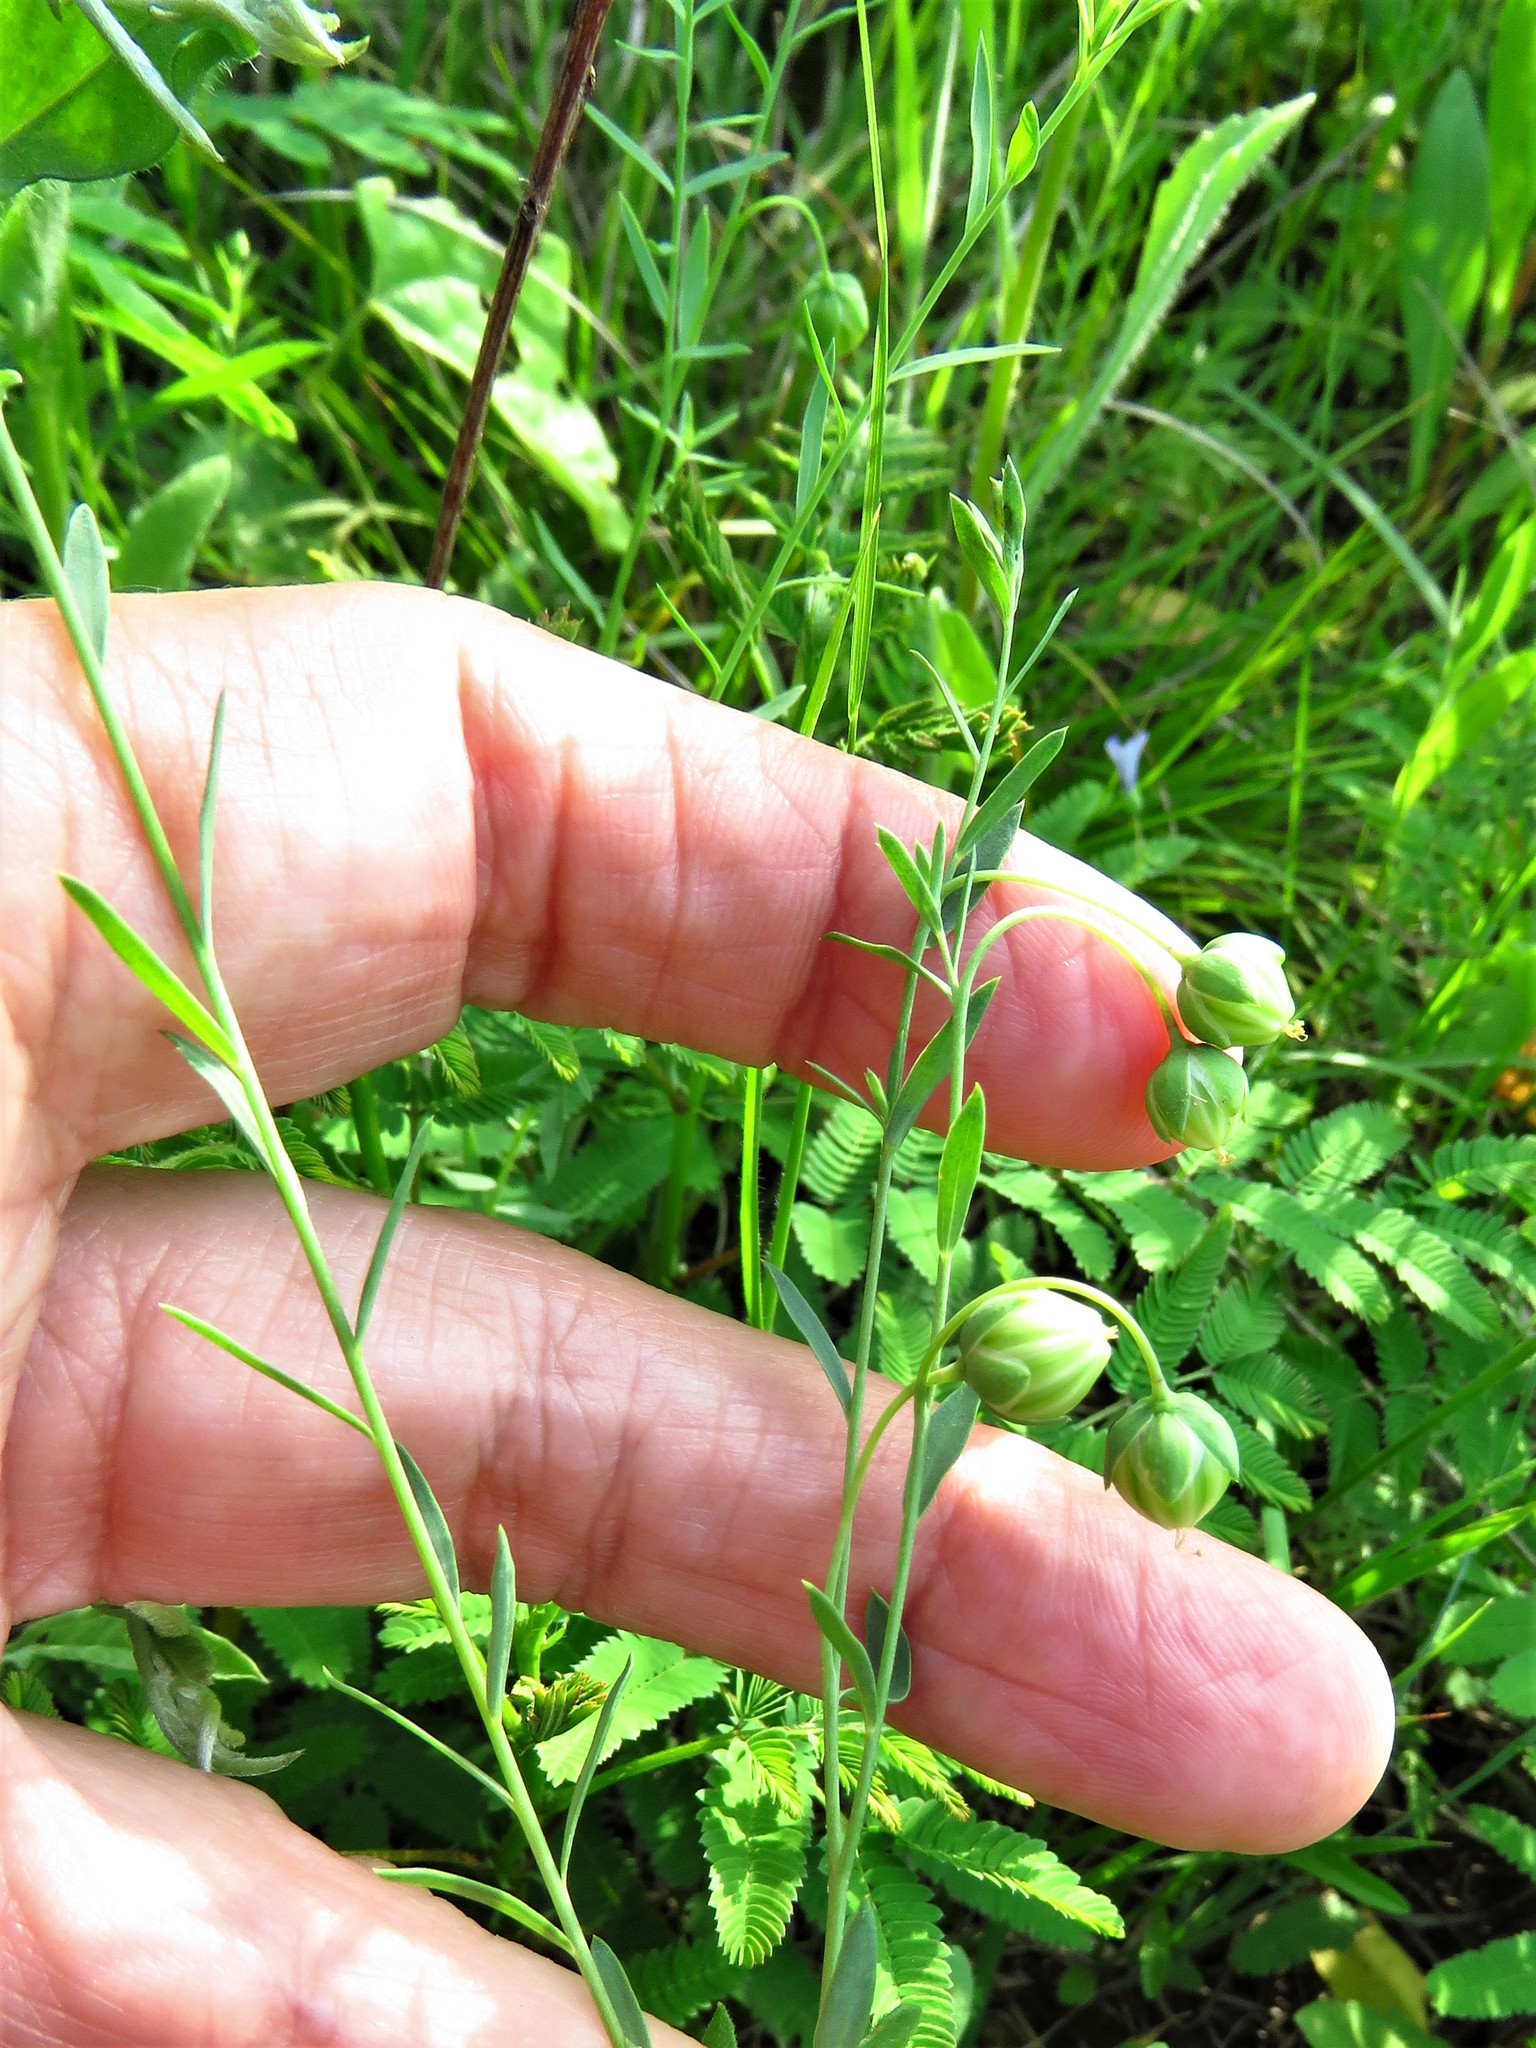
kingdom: Plantae
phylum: Tracheophyta
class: Magnoliopsida
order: Malpighiales
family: Linaceae
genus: Linum
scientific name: Linum pratense
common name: Norton's flax
